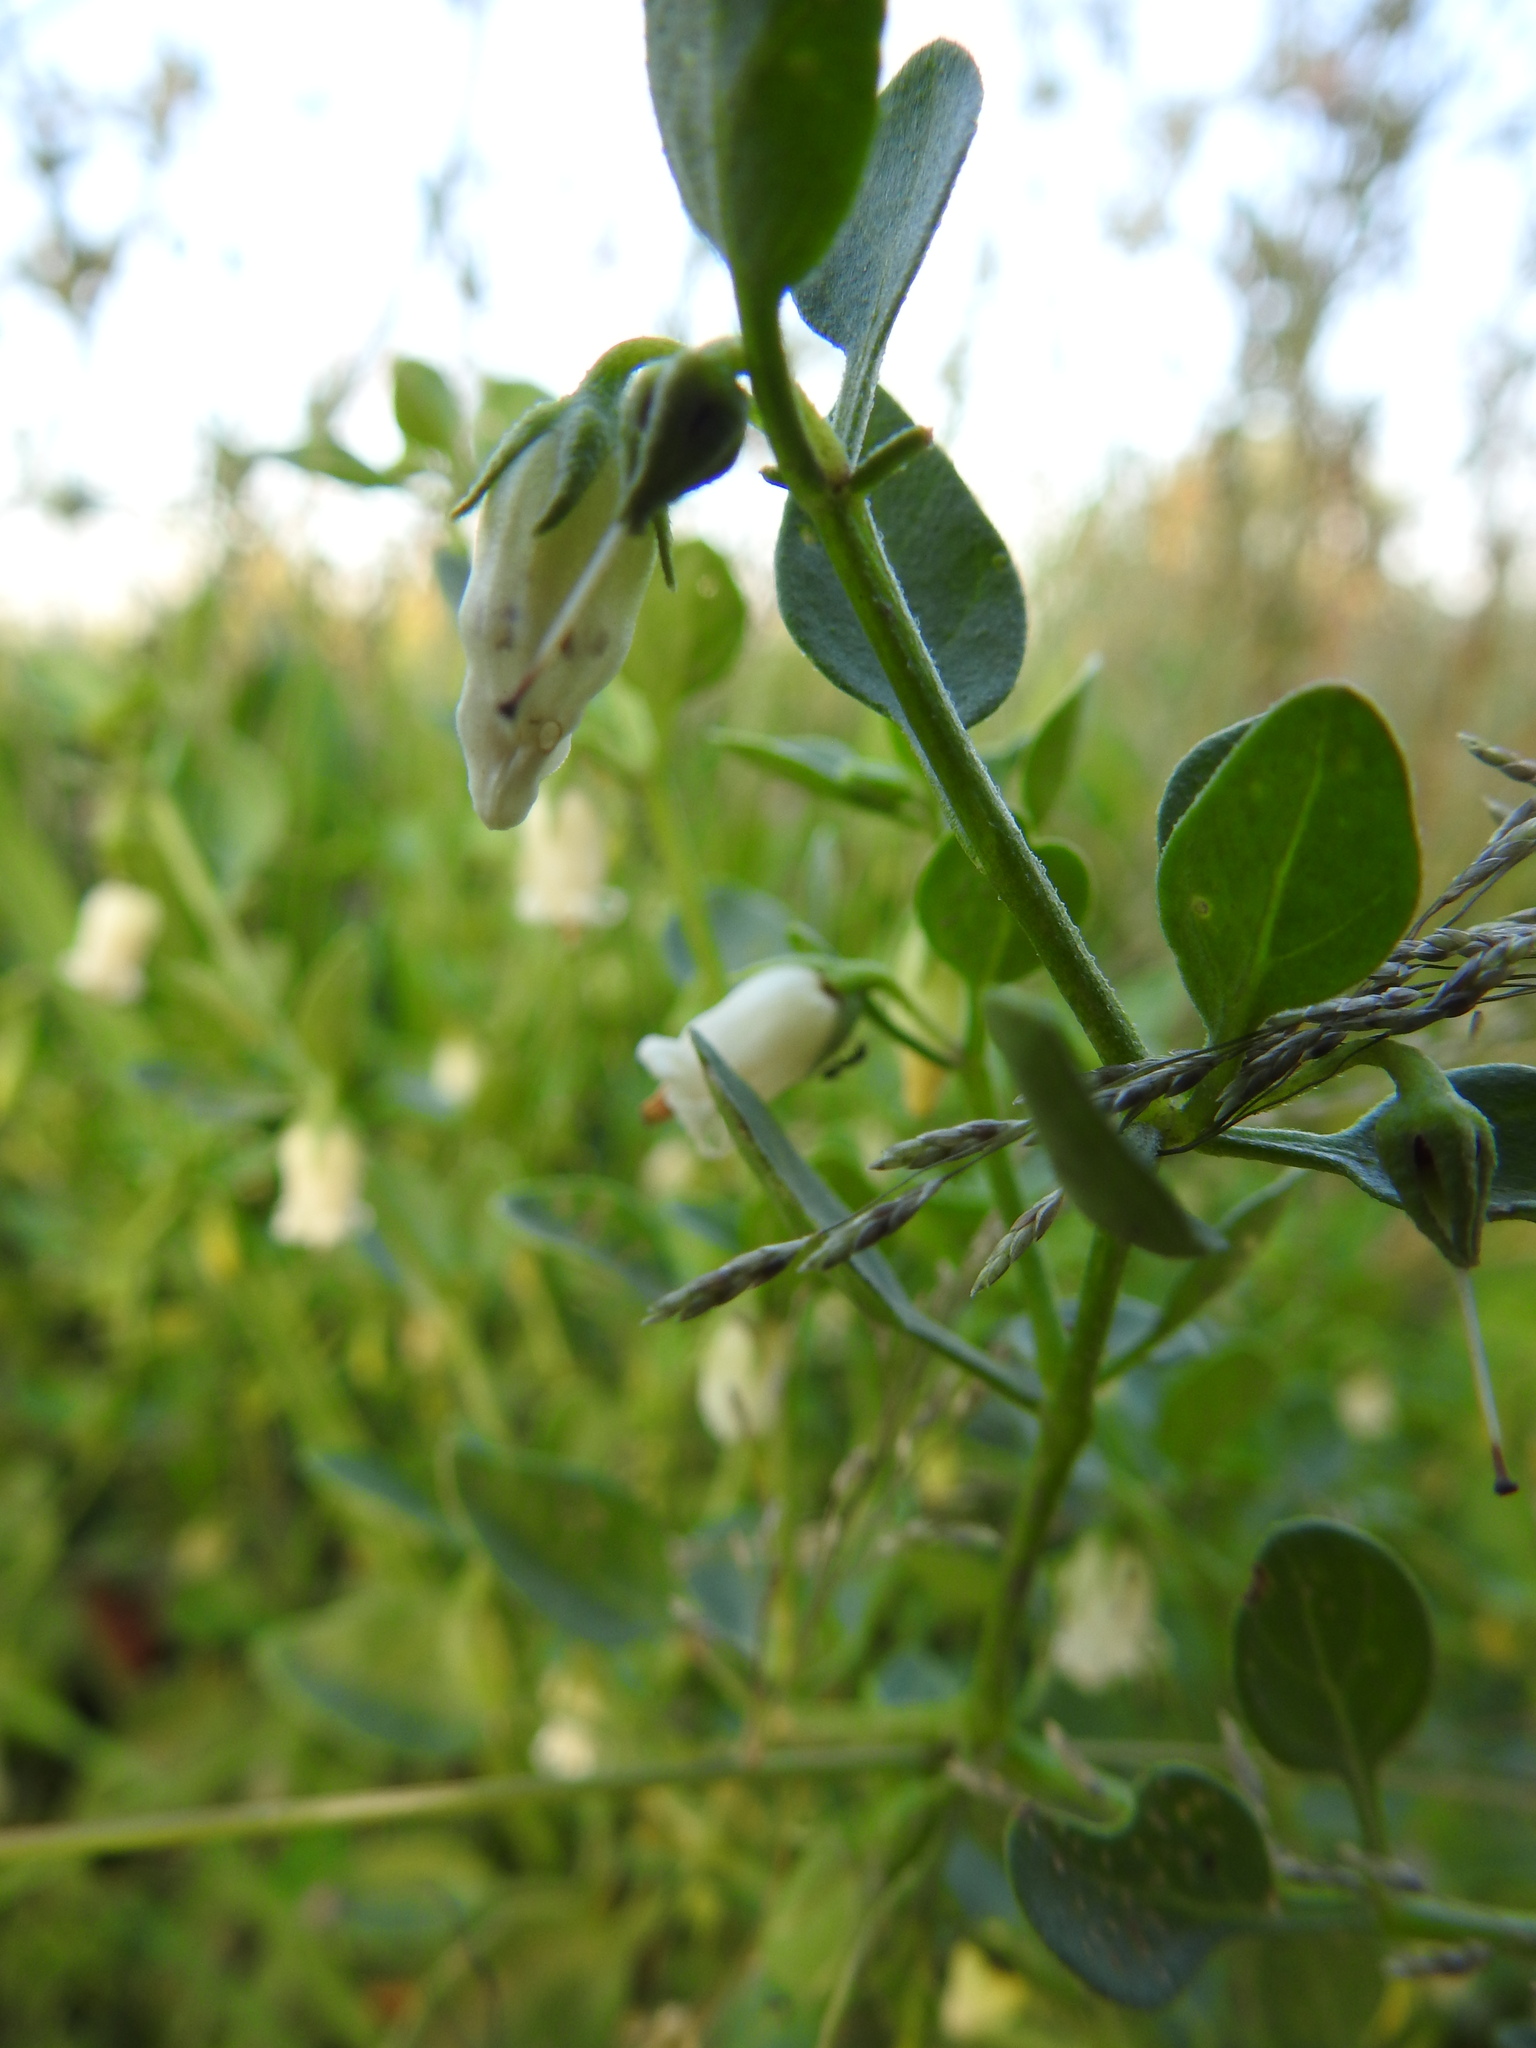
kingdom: Plantae
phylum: Tracheophyta
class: Magnoliopsida
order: Solanales
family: Solanaceae
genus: Salpichroa
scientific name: Salpichroa origanifolia
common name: Lily-of-the-valley-vine
